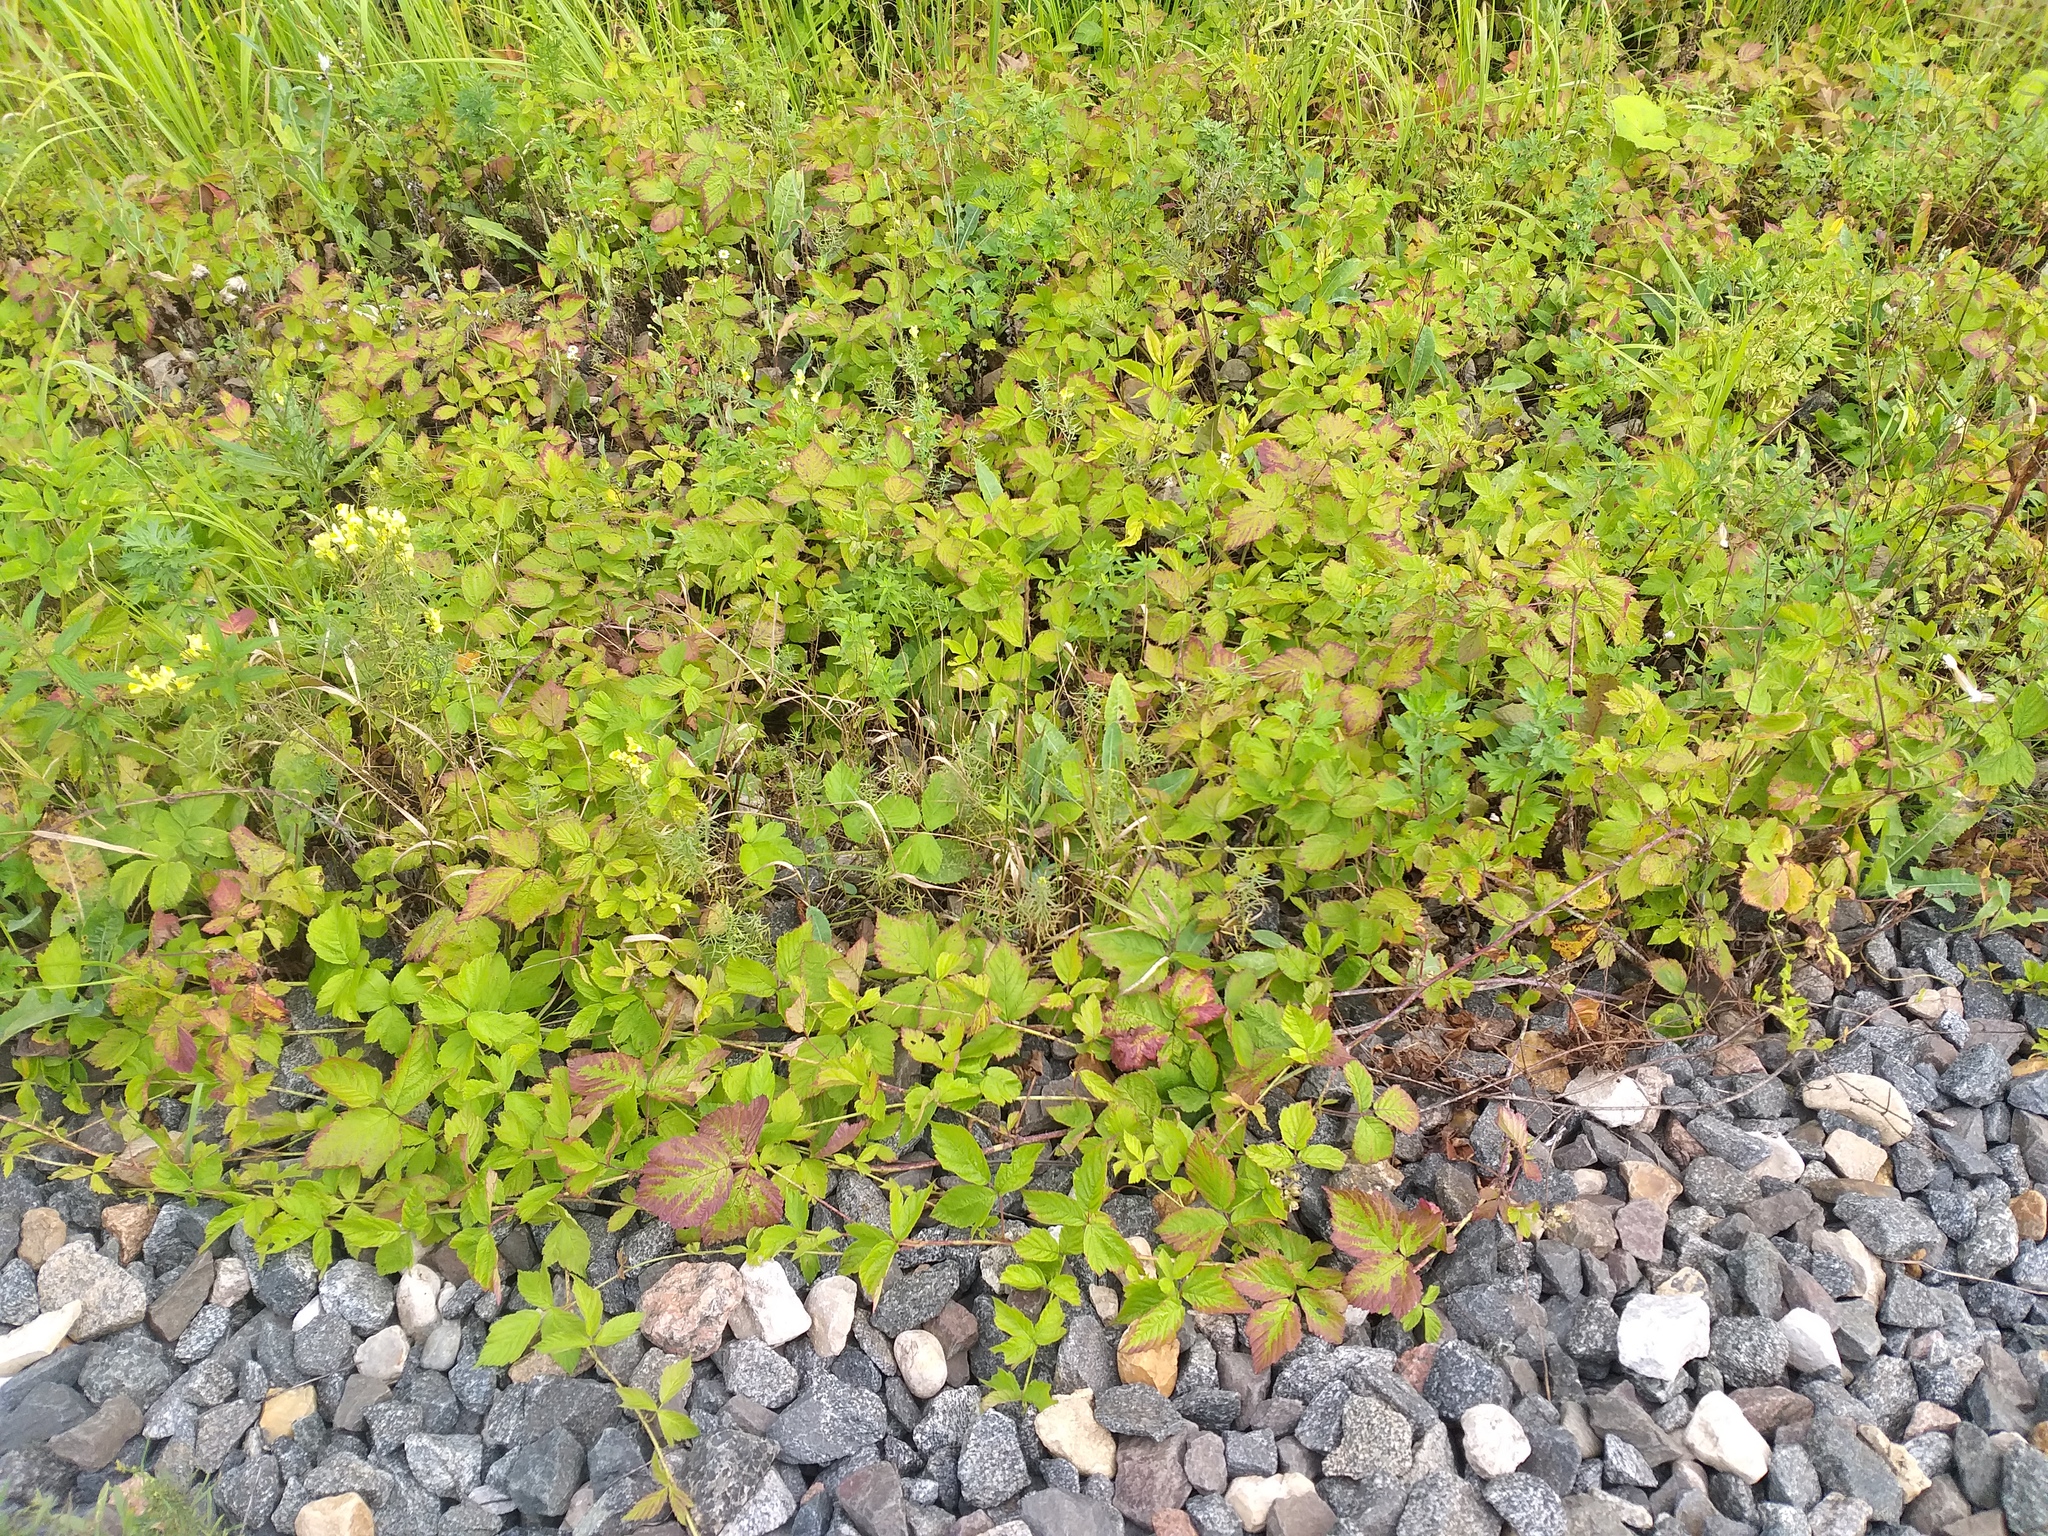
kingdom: Plantae
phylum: Tracheophyta
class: Magnoliopsida
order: Rosales
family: Rosaceae
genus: Rubus
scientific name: Rubus caesius
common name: Dewberry
